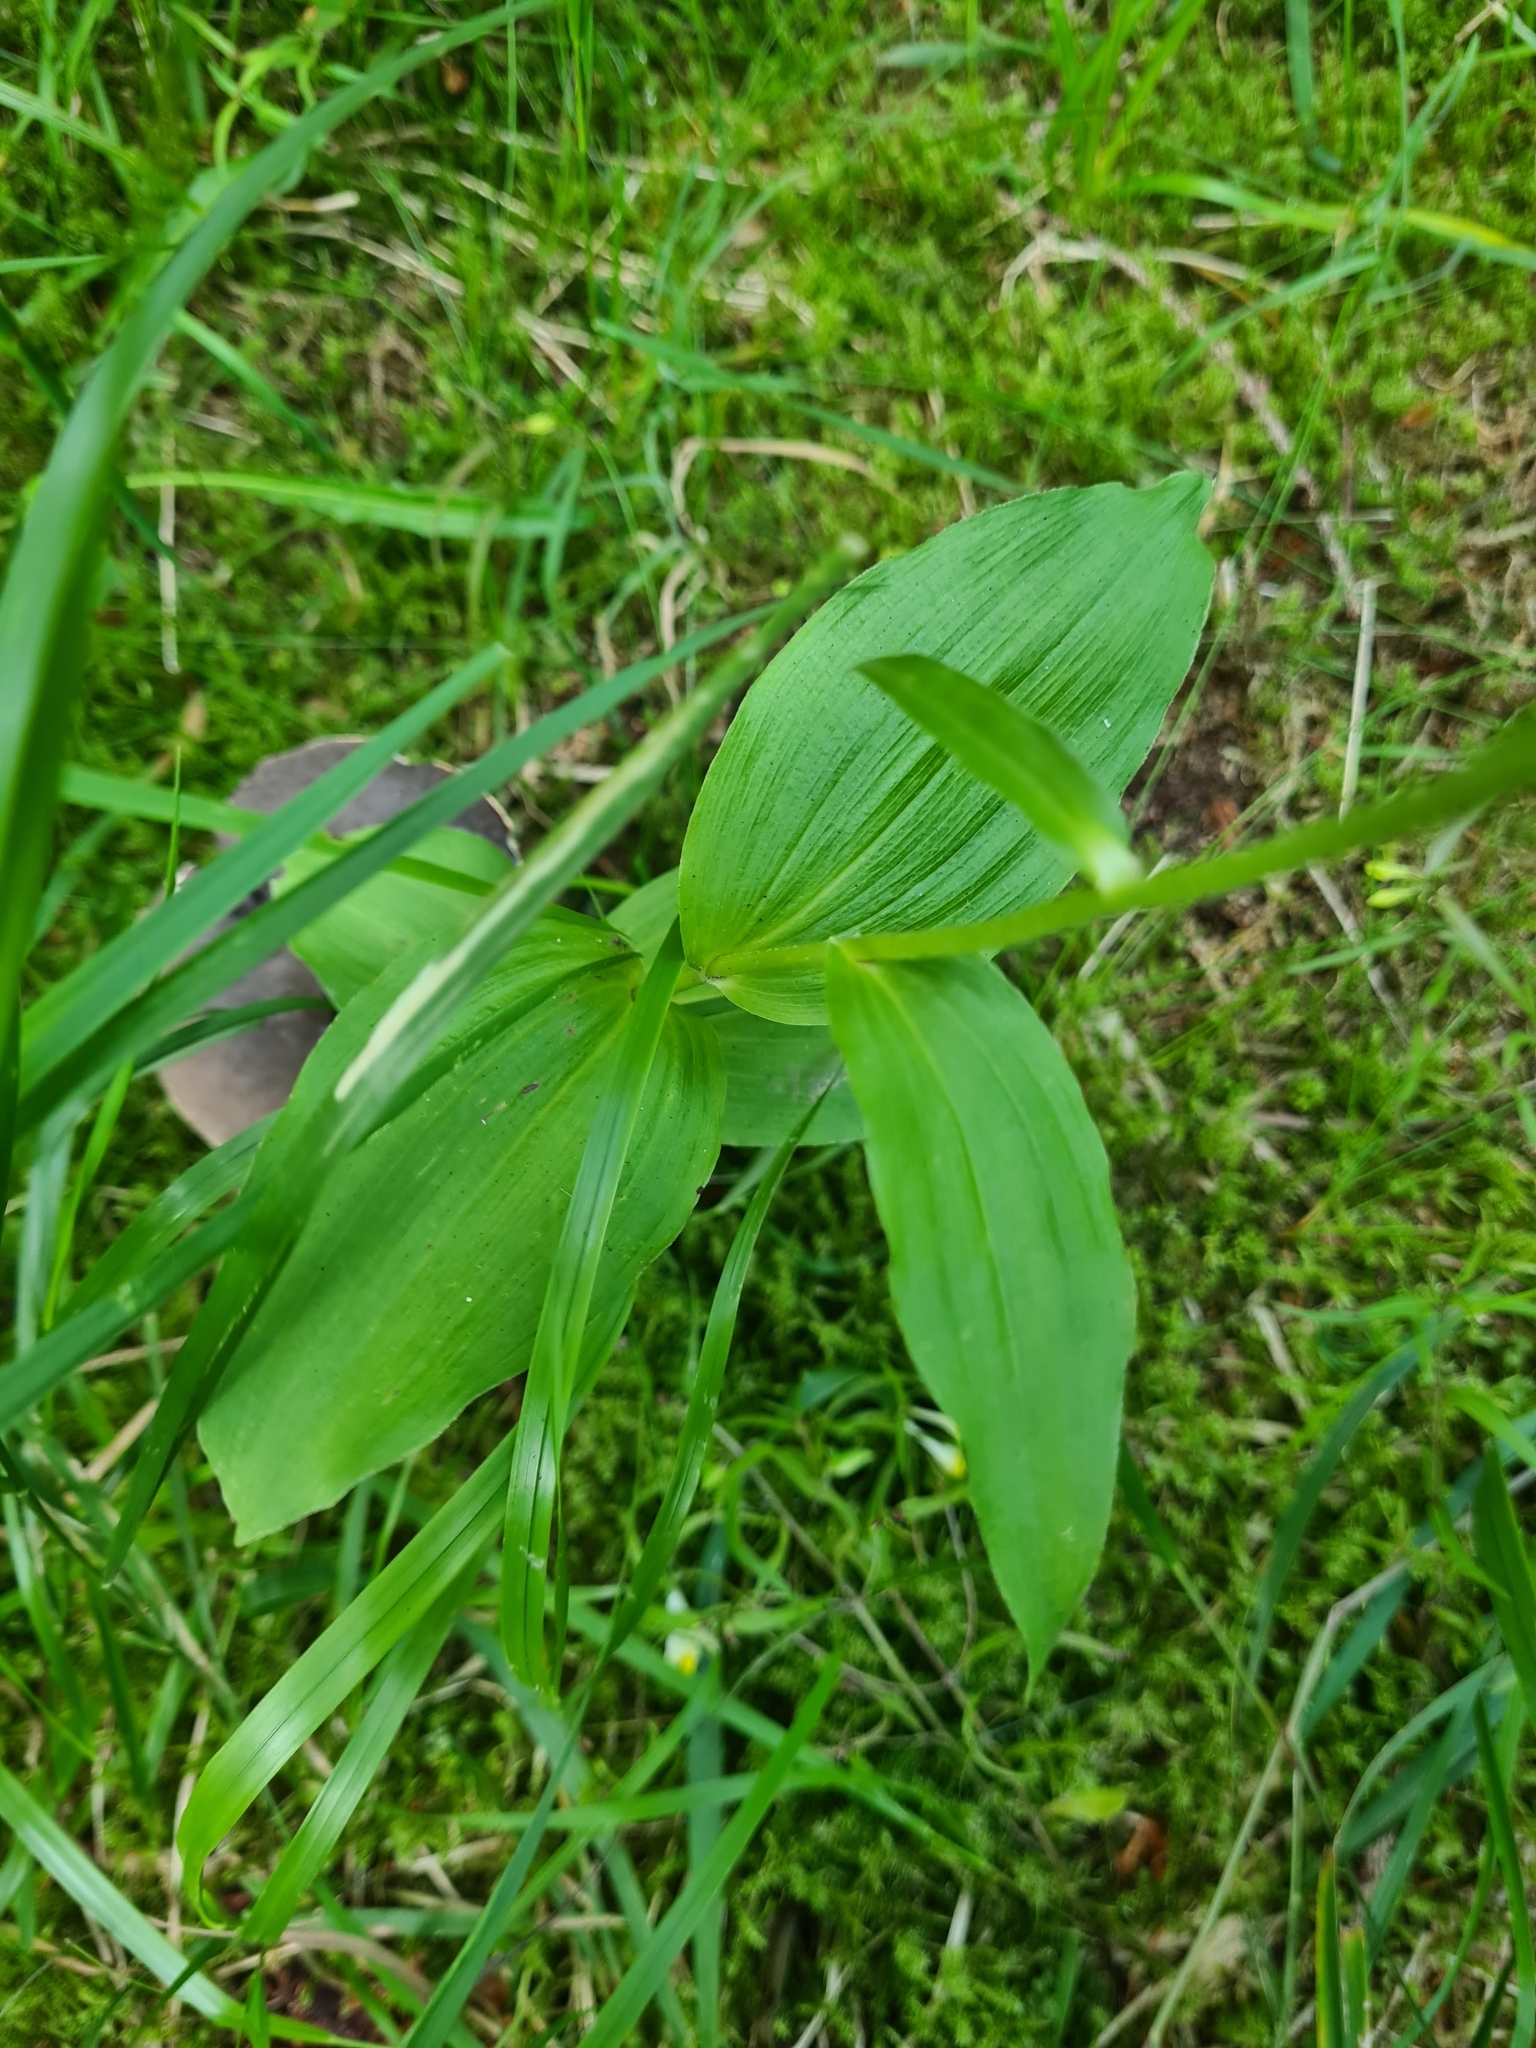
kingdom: Plantae
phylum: Tracheophyta
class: Liliopsida
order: Asparagales
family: Orchidaceae
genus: Epipactis
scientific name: Epipactis helleborine
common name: Broad-leaved helleborine
